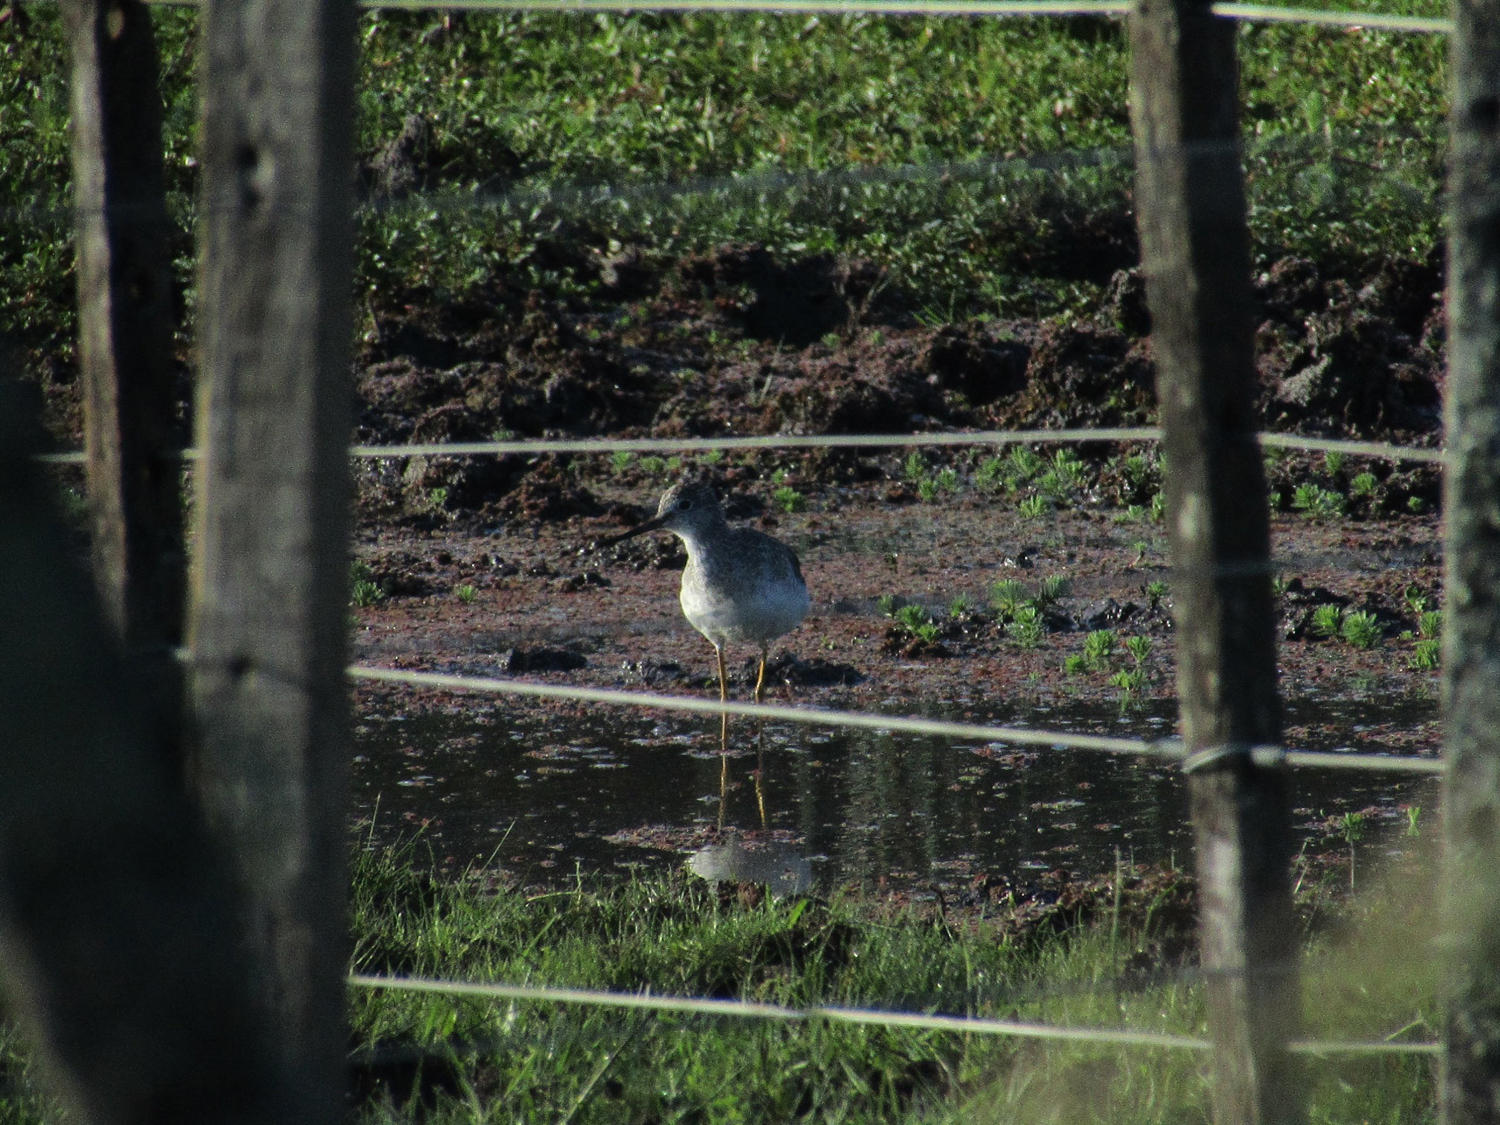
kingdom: Animalia
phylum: Chordata
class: Aves
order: Charadriiformes
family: Scolopacidae
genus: Tringa
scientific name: Tringa melanoleuca
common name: Greater yellowlegs
